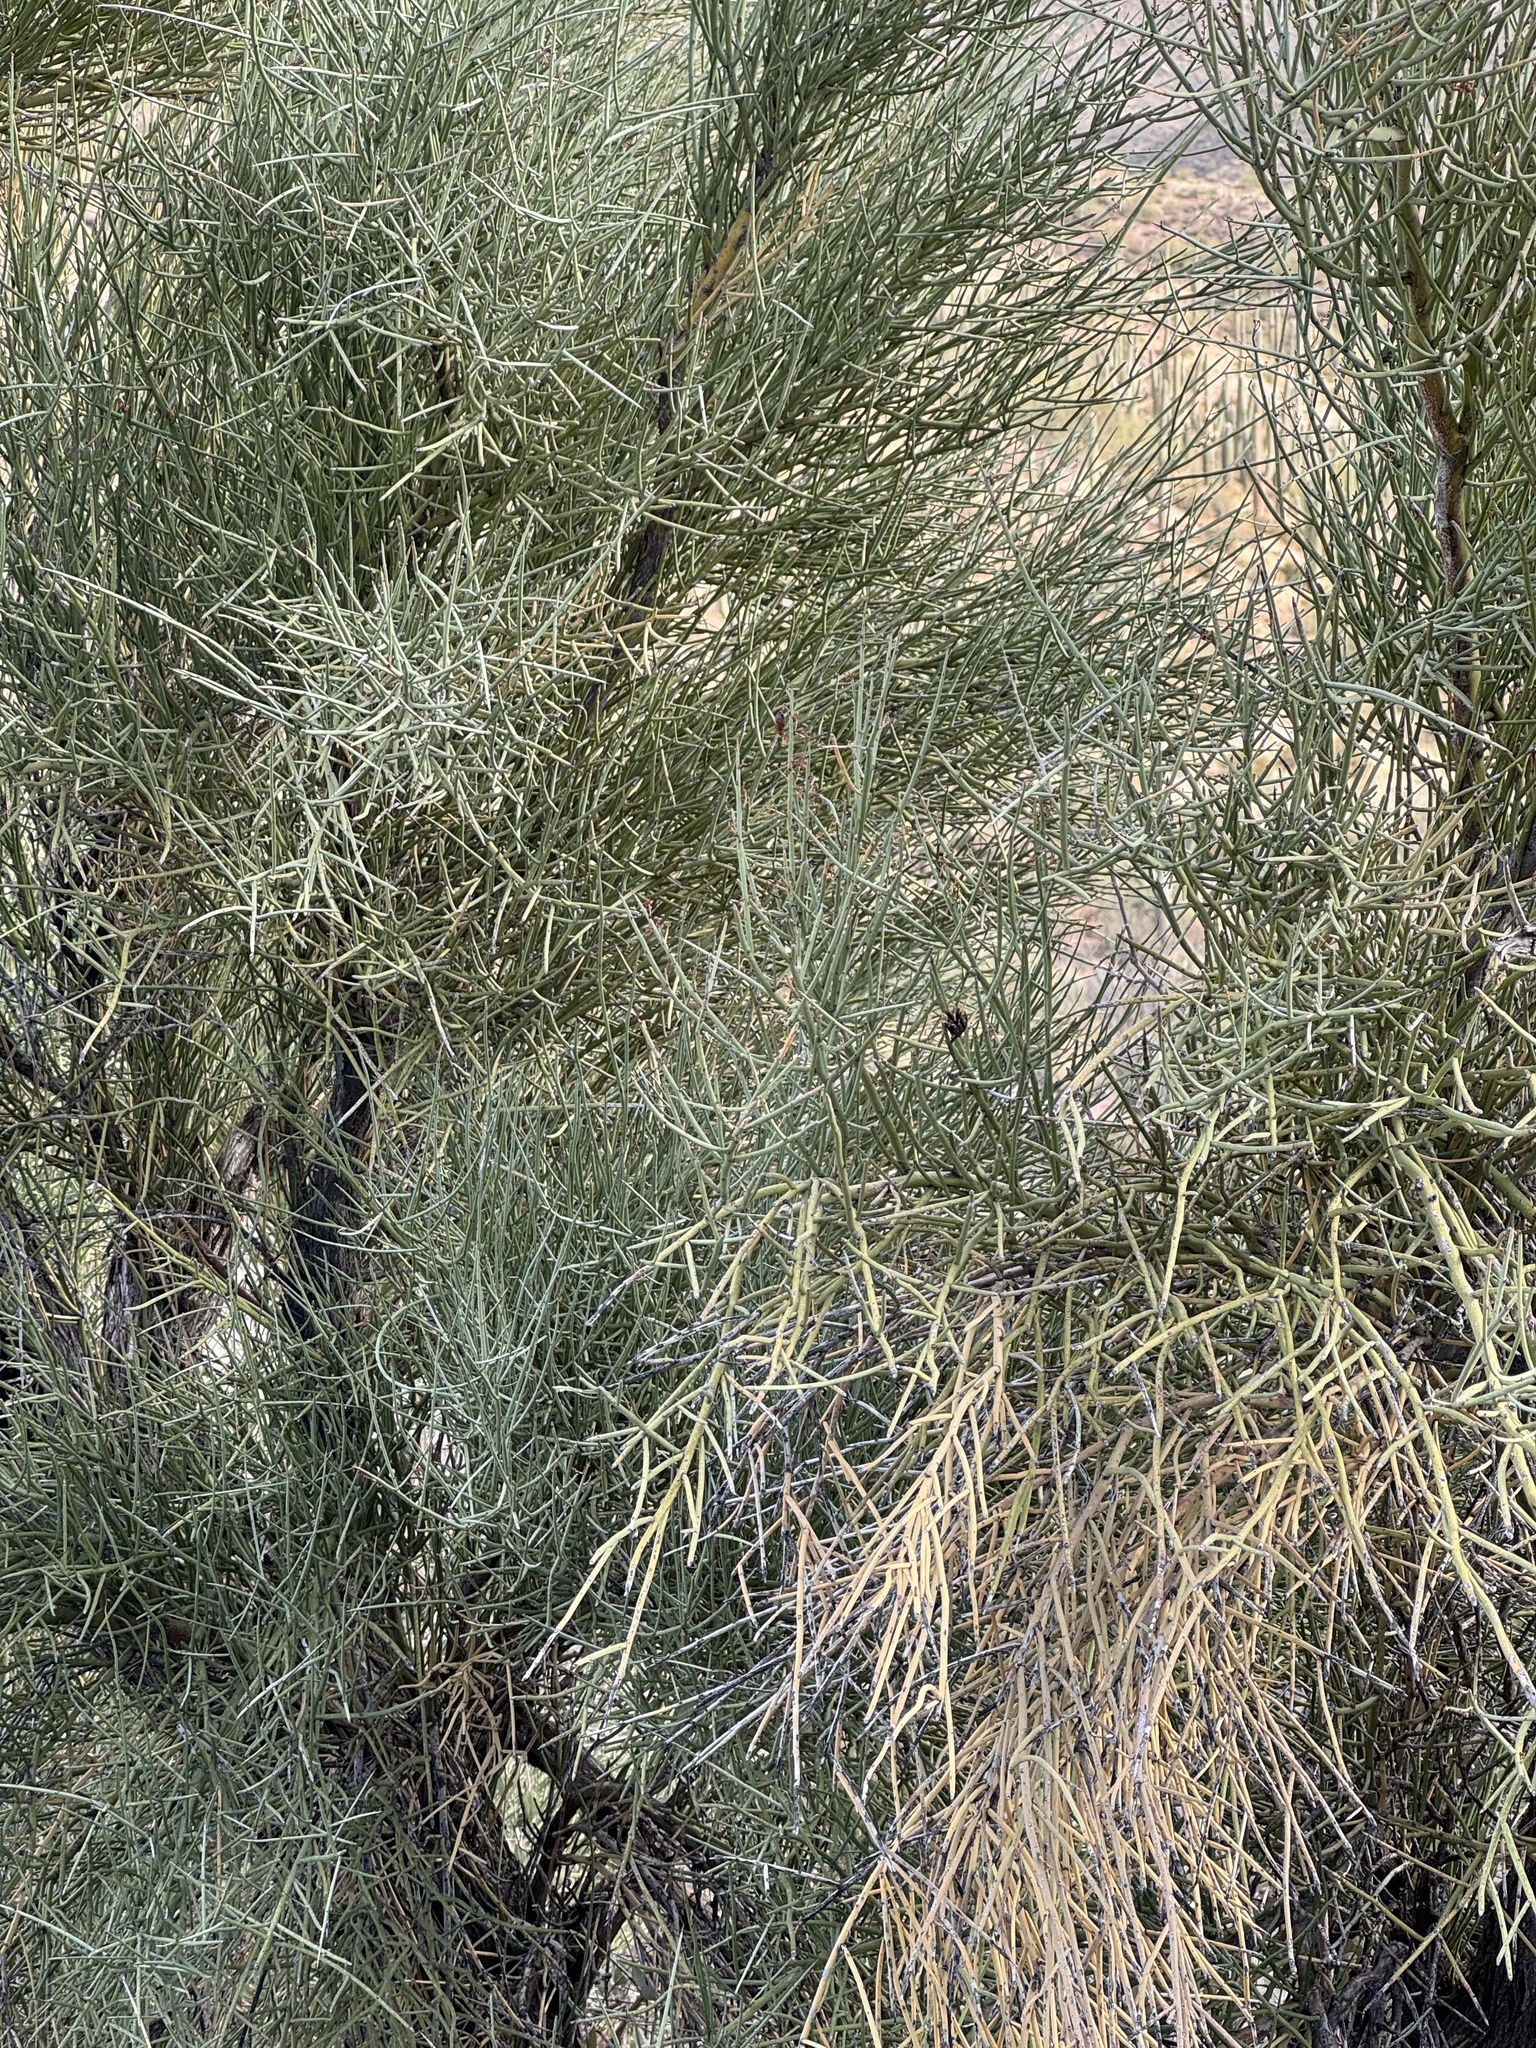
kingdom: Plantae
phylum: Tracheophyta
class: Magnoliopsida
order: Celastrales
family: Celastraceae
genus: Canotia
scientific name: Canotia holacantha
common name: Crucifixion thorns
